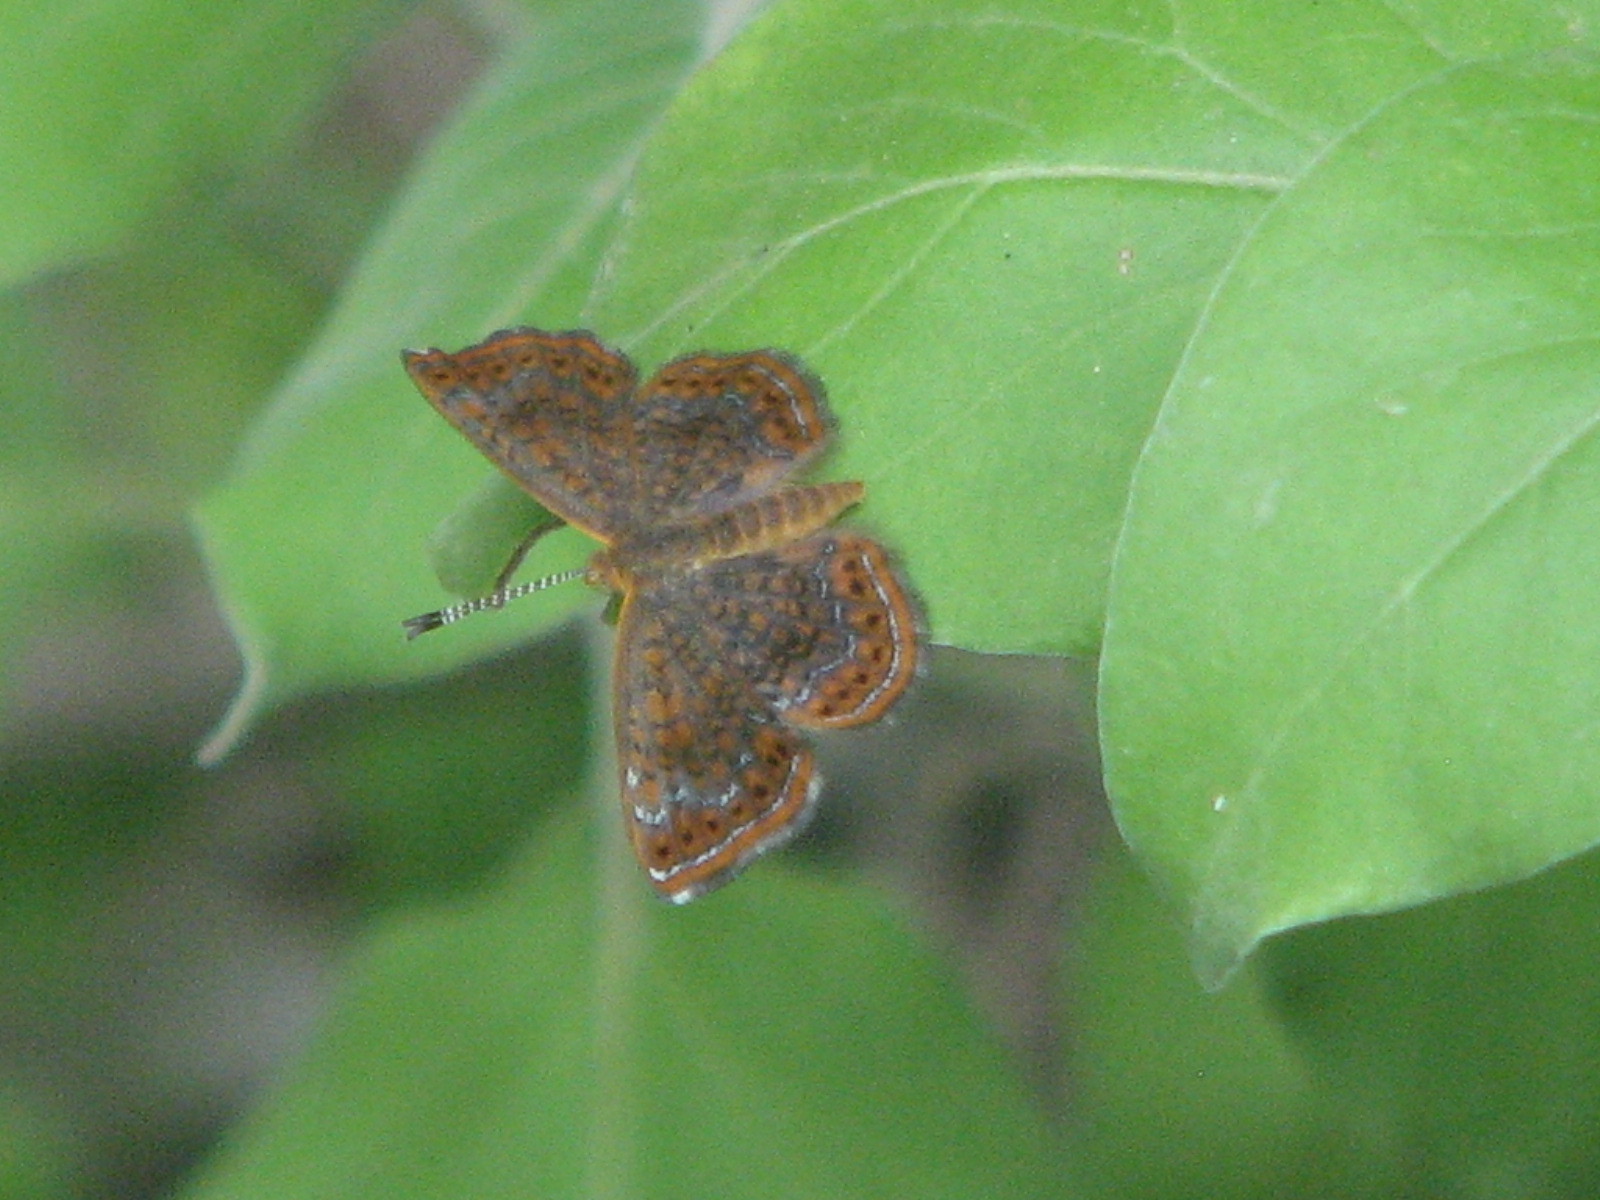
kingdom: Animalia
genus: Calephelis
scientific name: Calephelis perditalis
